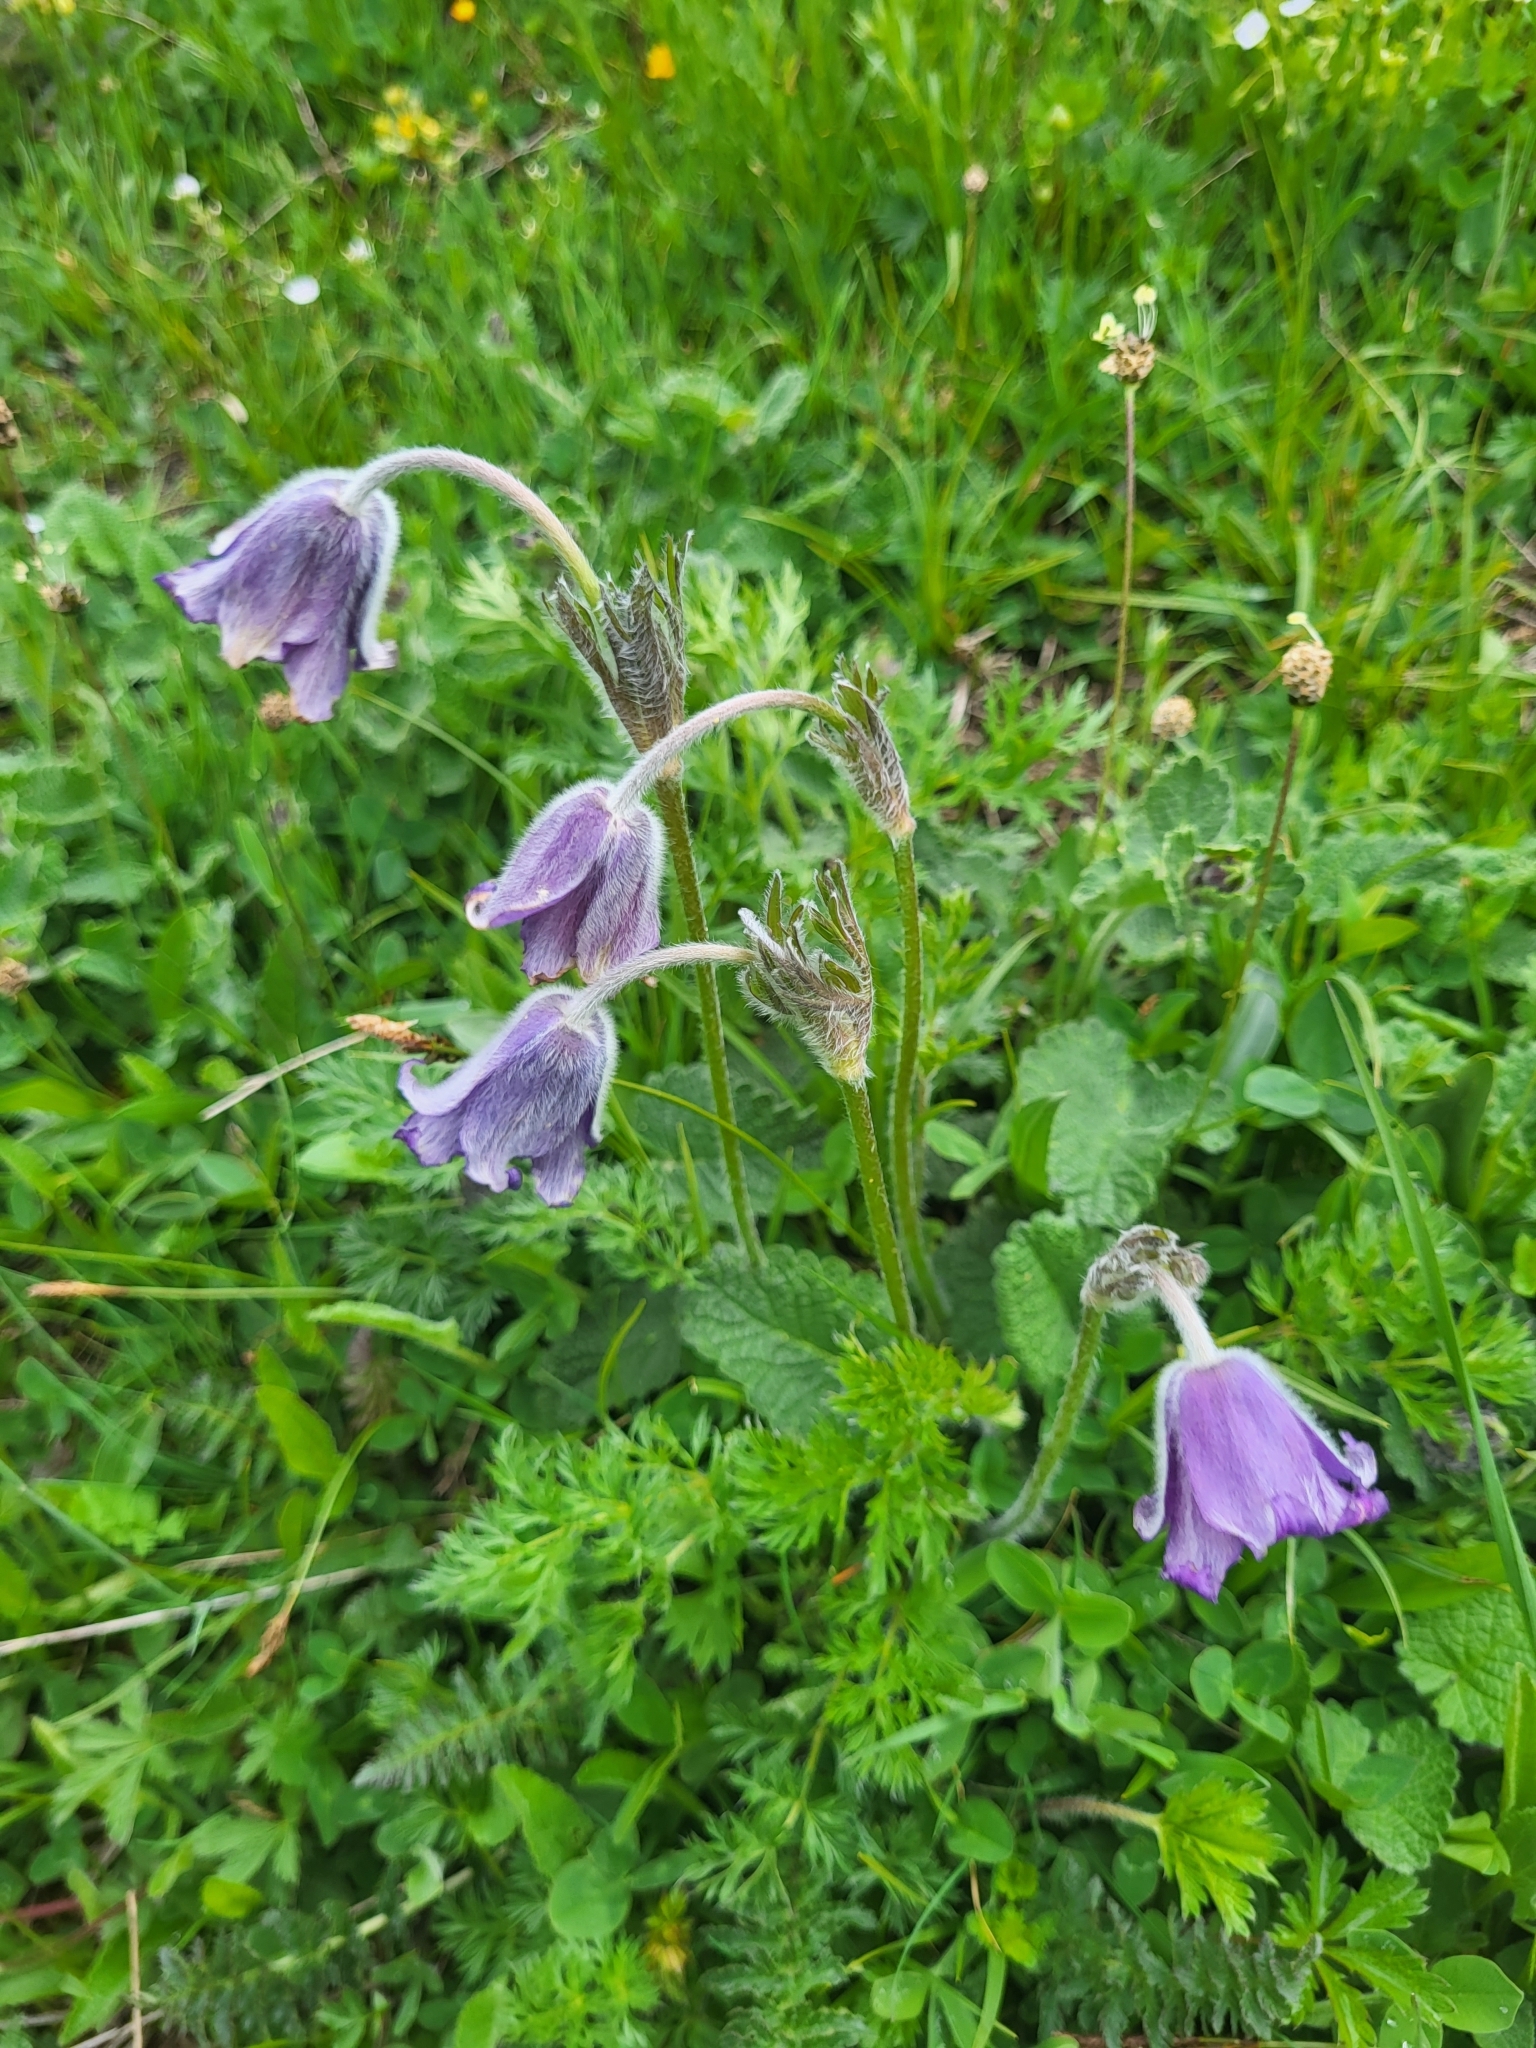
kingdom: Plantae
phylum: Tracheophyta
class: Magnoliopsida
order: Ranunculales
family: Ranunculaceae
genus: Pulsatilla
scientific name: Pulsatilla violacea
